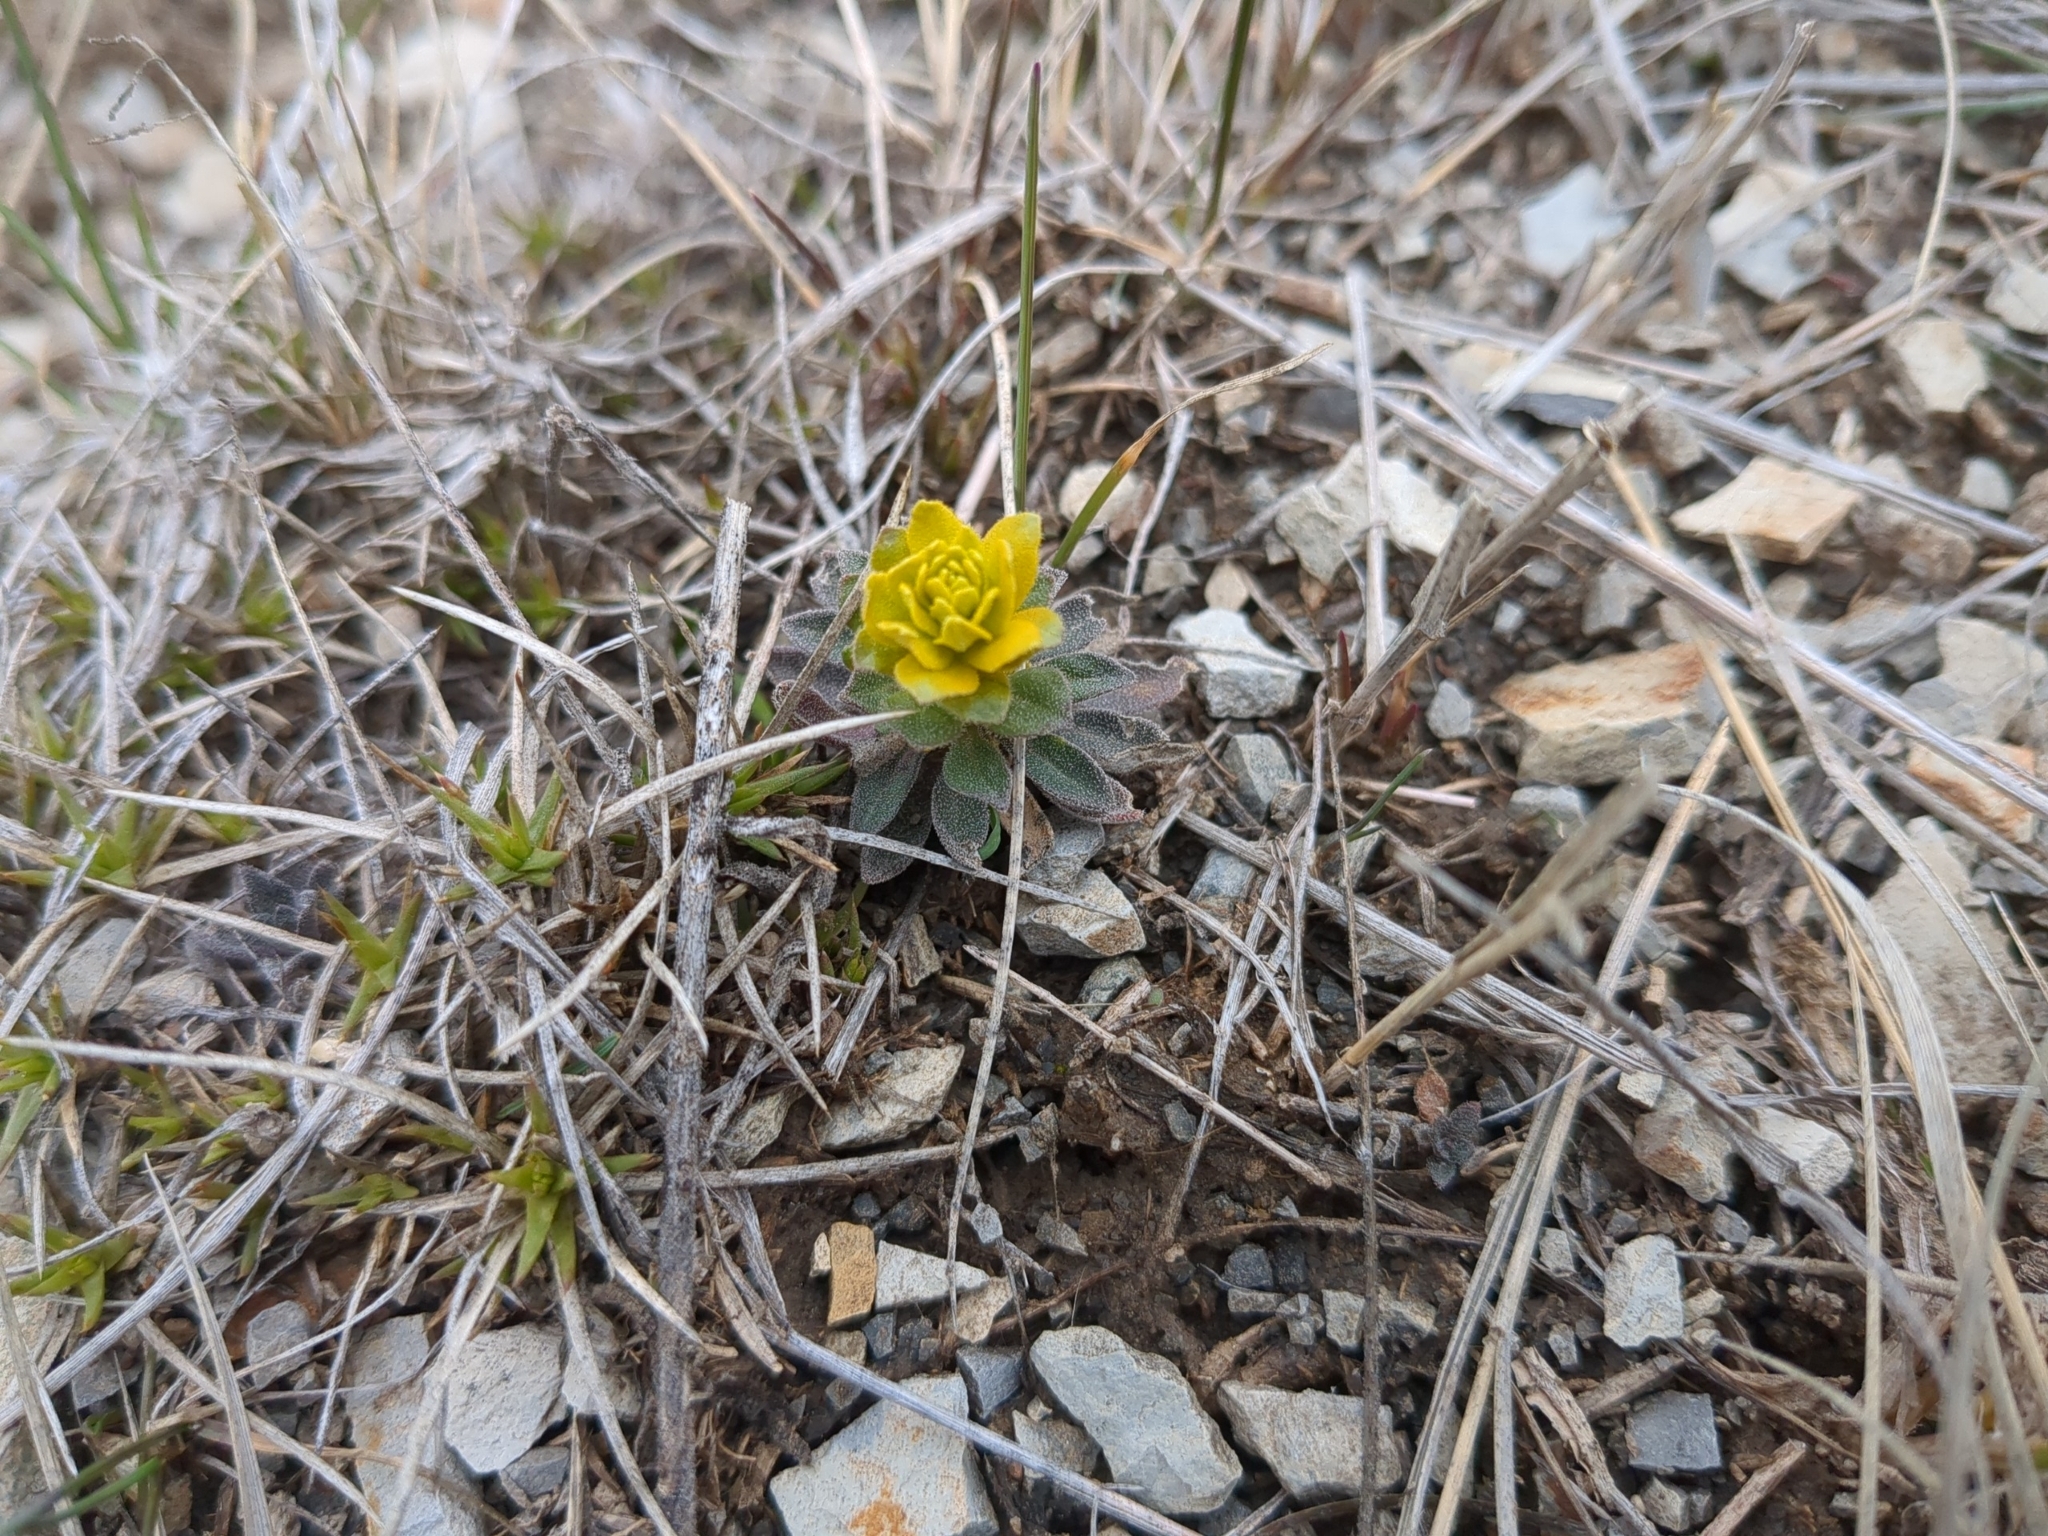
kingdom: Fungi
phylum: Basidiomycota
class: Pucciniomycetes
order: Pucciniales
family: Pucciniaceae
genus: Puccinia
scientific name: Puccinia monoica
